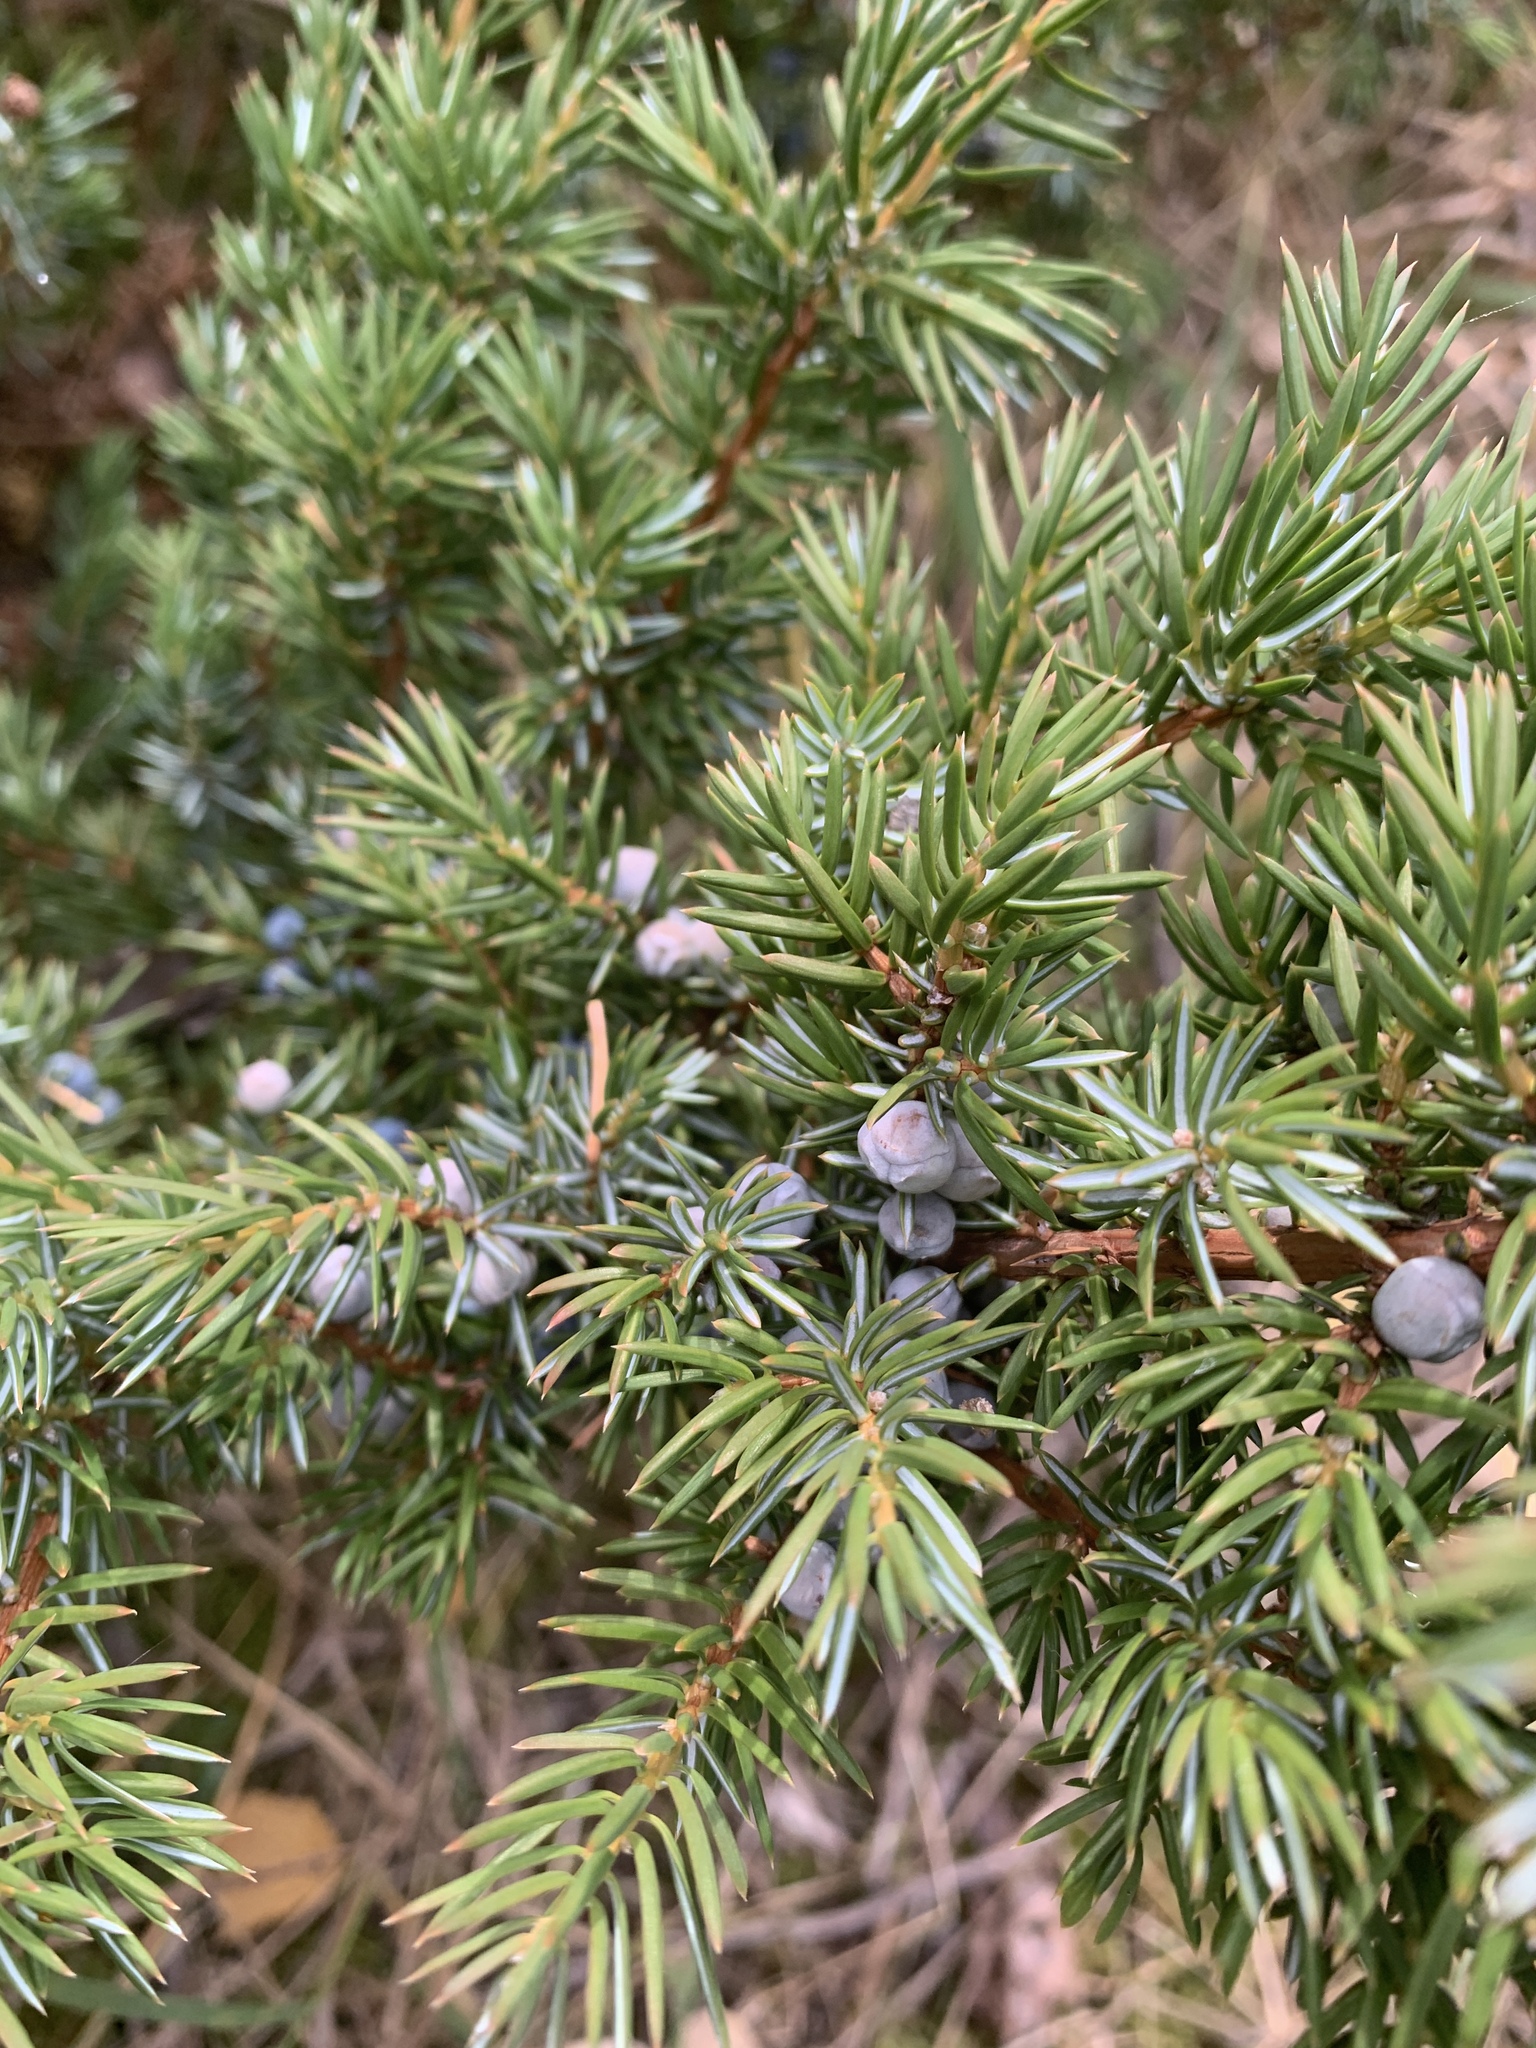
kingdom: Plantae
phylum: Tracheophyta
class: Pinopsida
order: Pinales
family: Cupressaceae
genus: Juniperus
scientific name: Juniperus communis
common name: Common juniper
